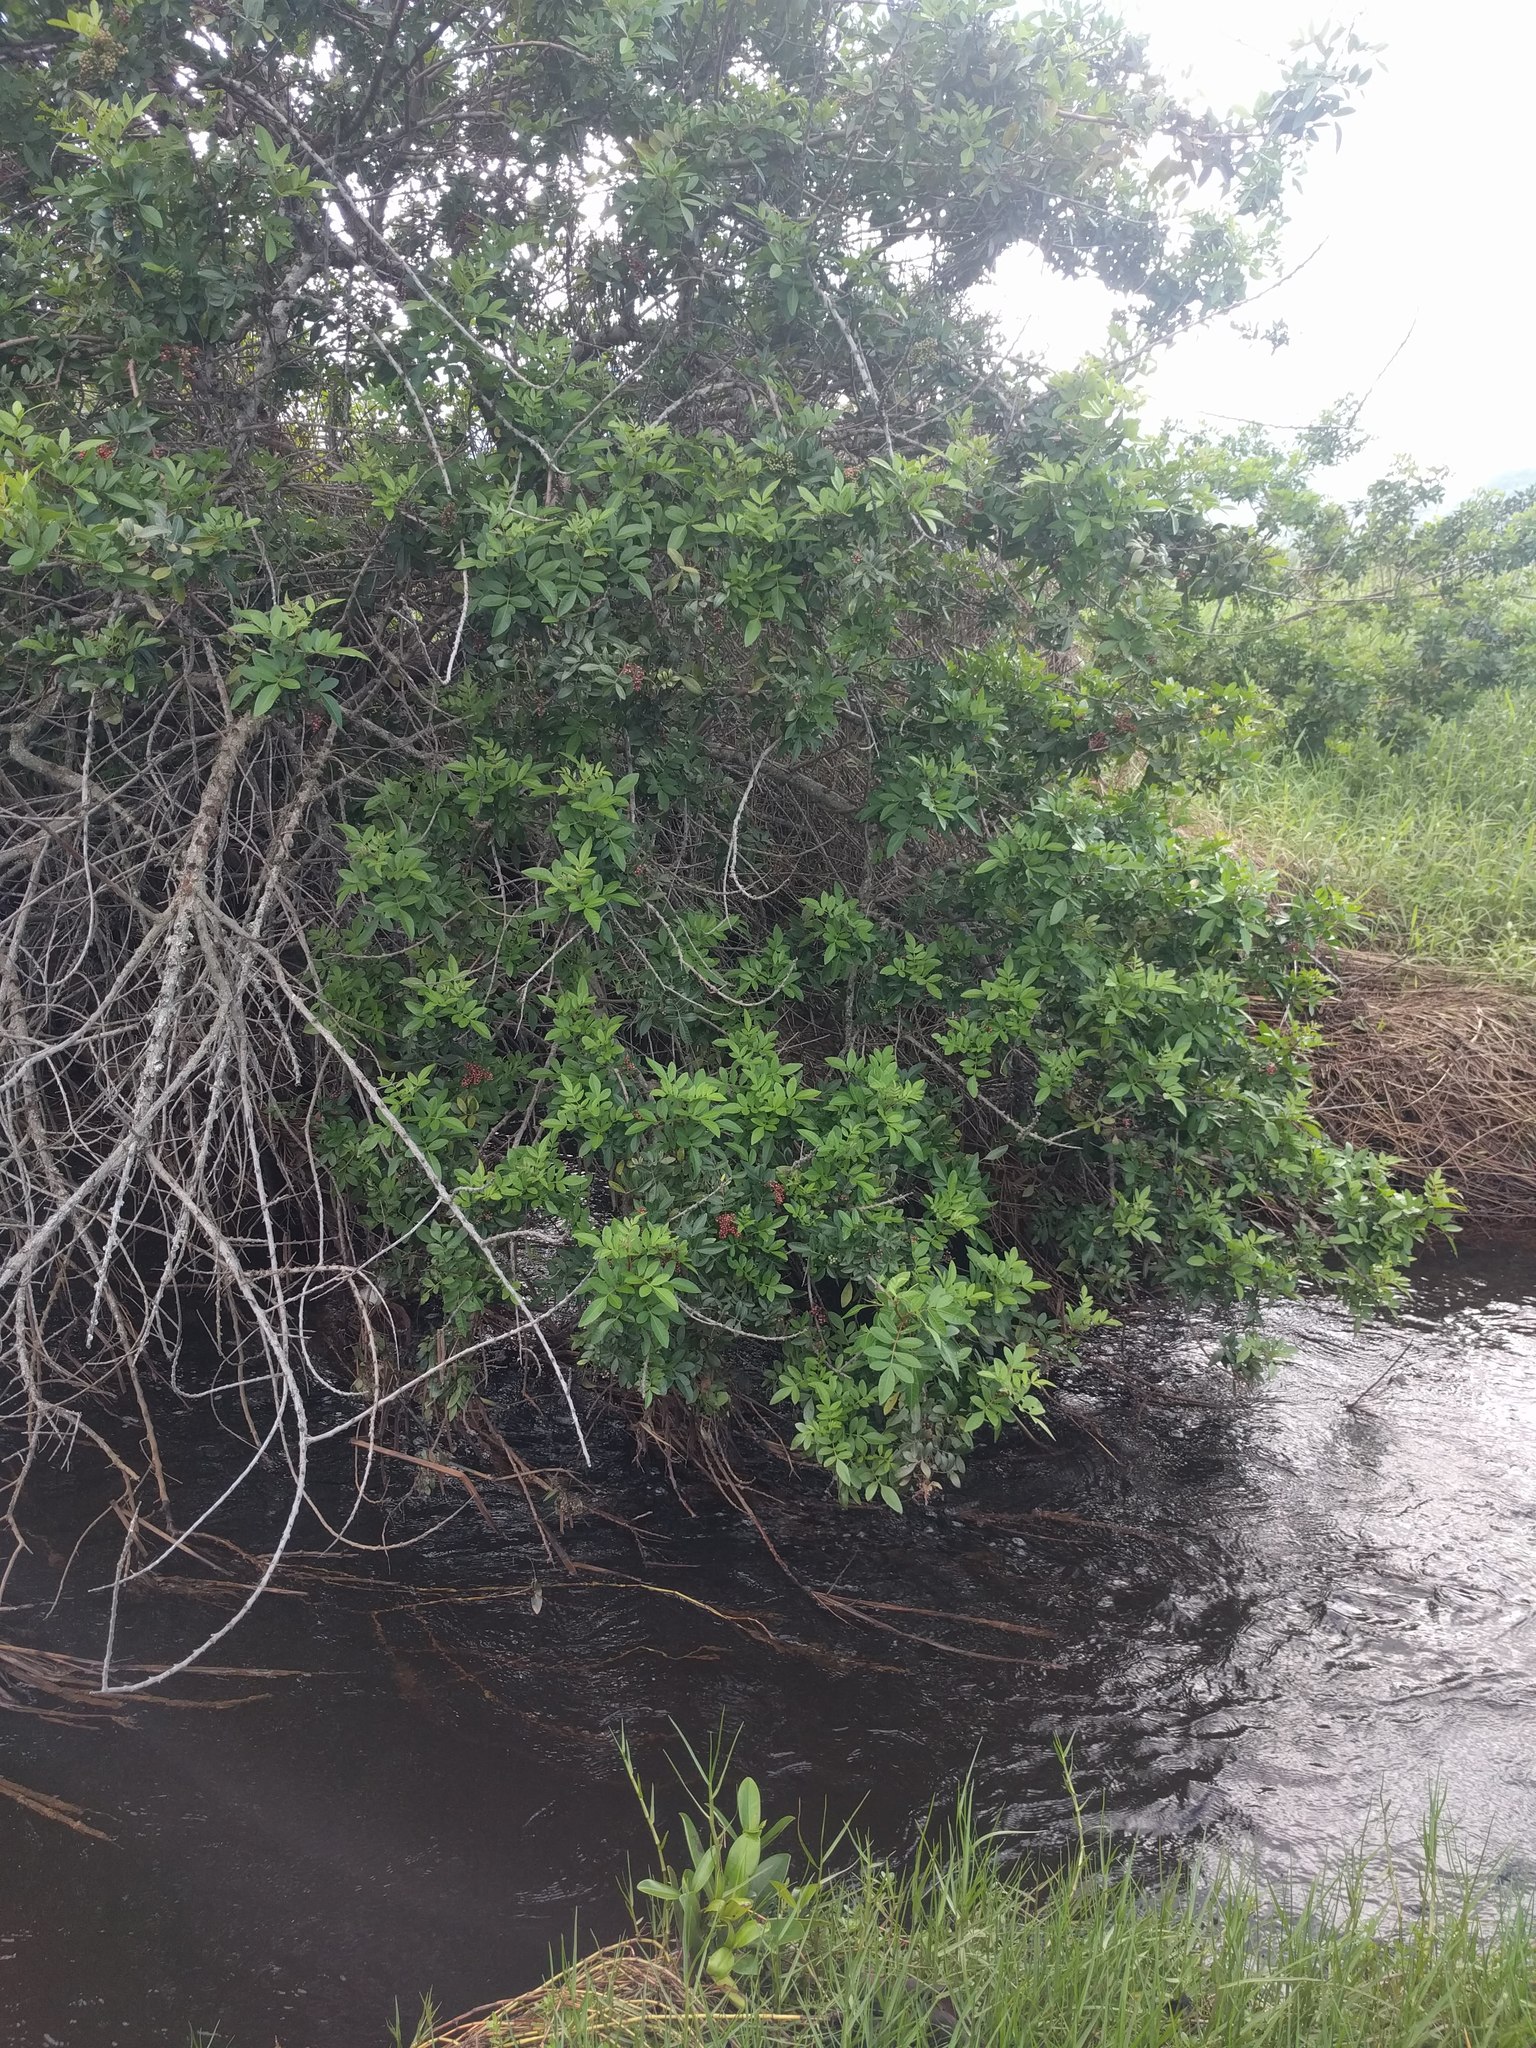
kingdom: Plantae
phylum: Tracheophyta
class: Magnoliopsida
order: Sapindales
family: Anacardiaceae
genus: Schinus
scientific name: Schinus terebinthifolia
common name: Brazilian peppertree
